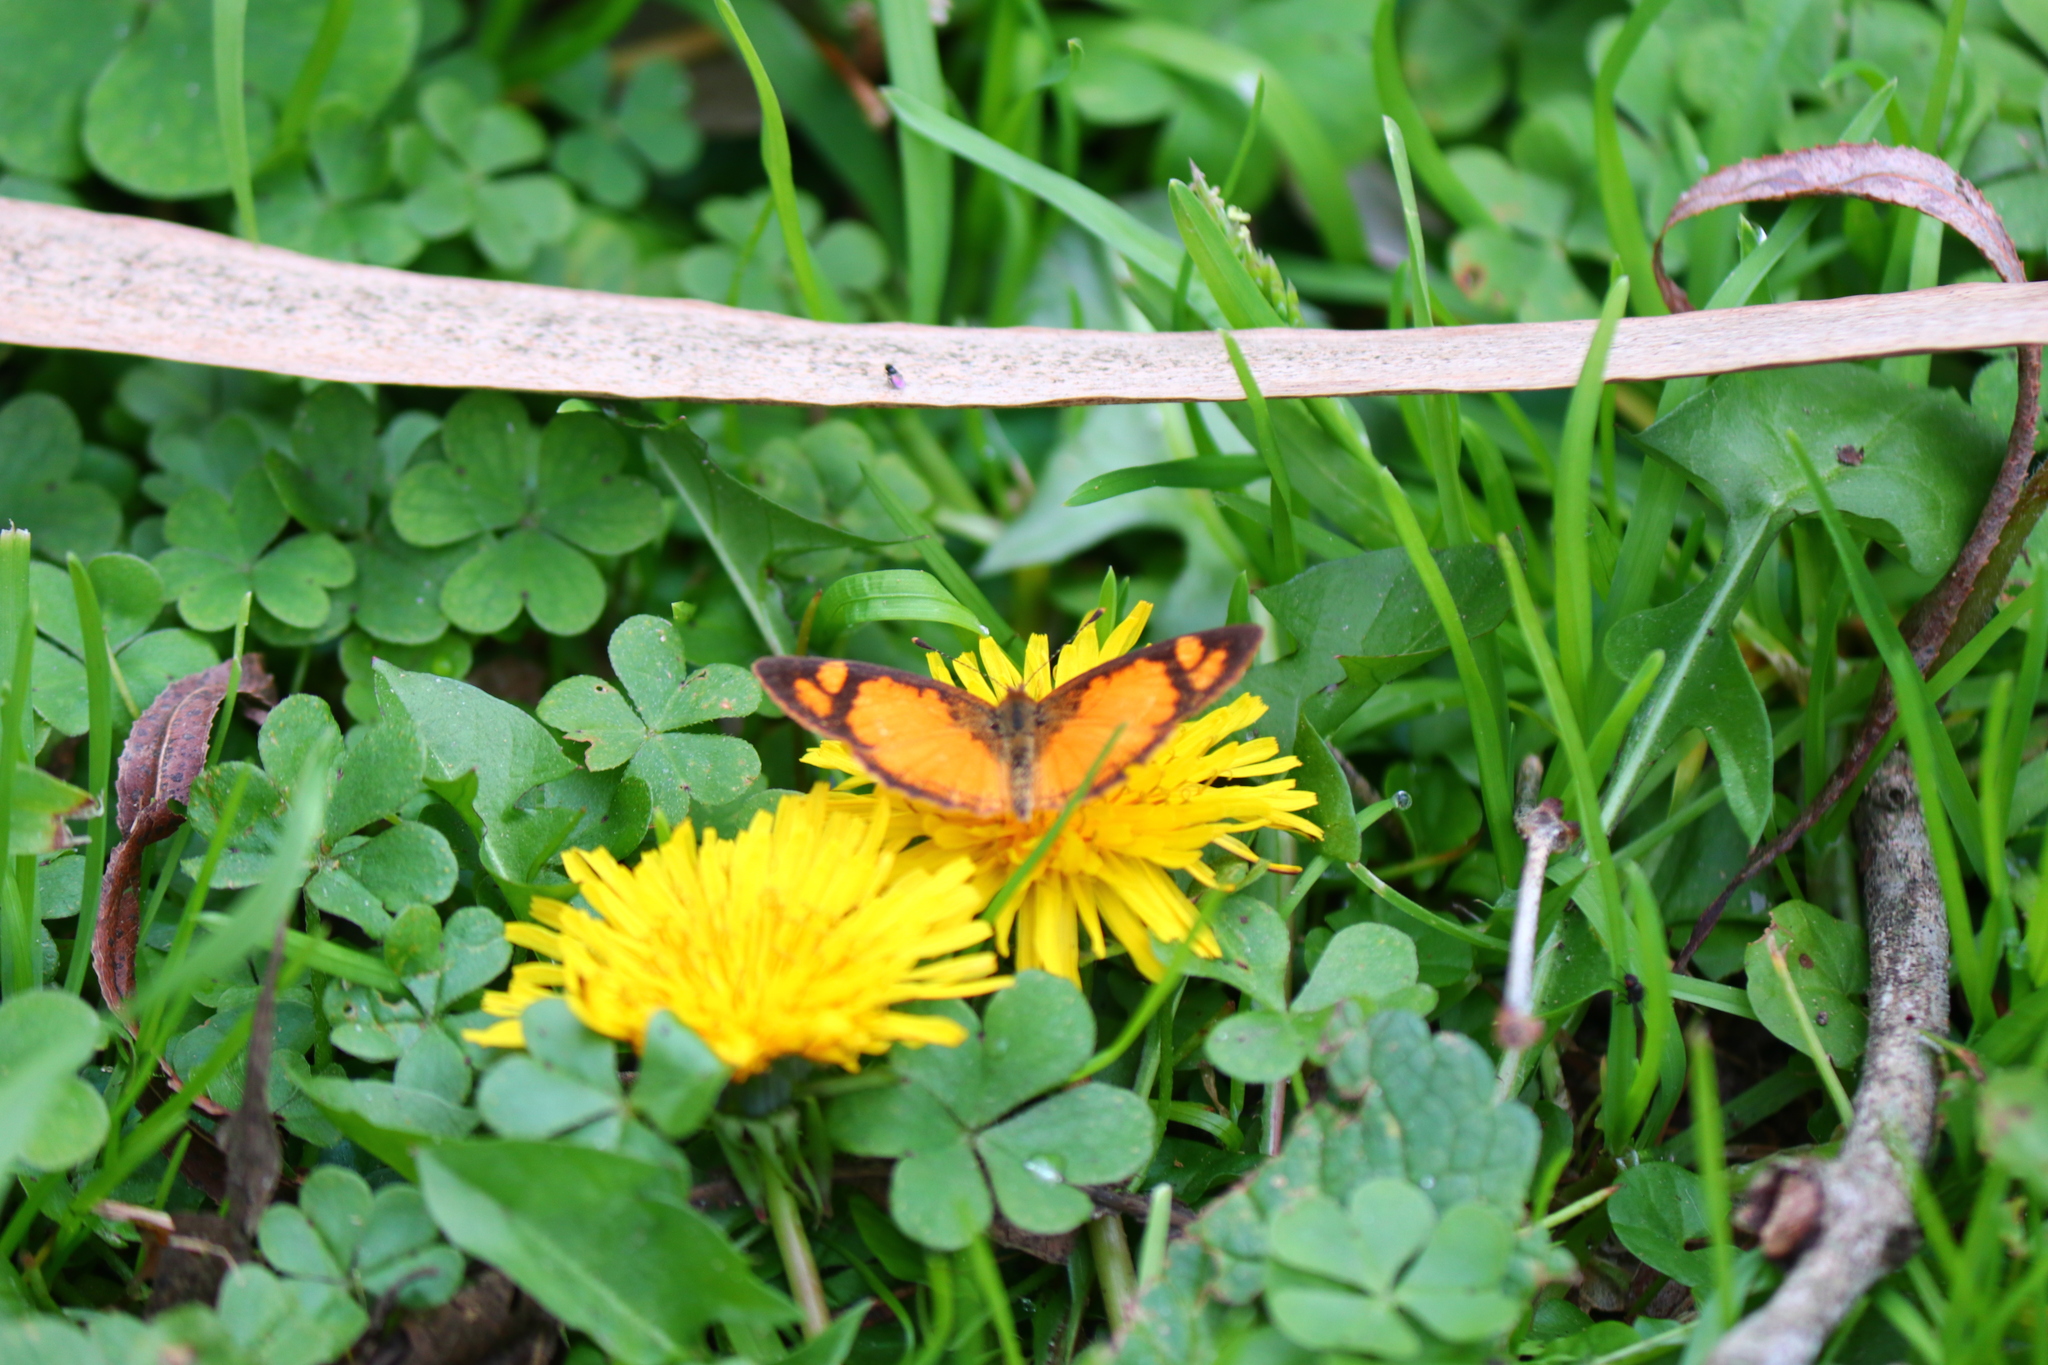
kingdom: Animalia
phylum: Arthropoda
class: Insecta
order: Lepidoptera
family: Nymphalidae
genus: Tegosa
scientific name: Tegosa claudina
